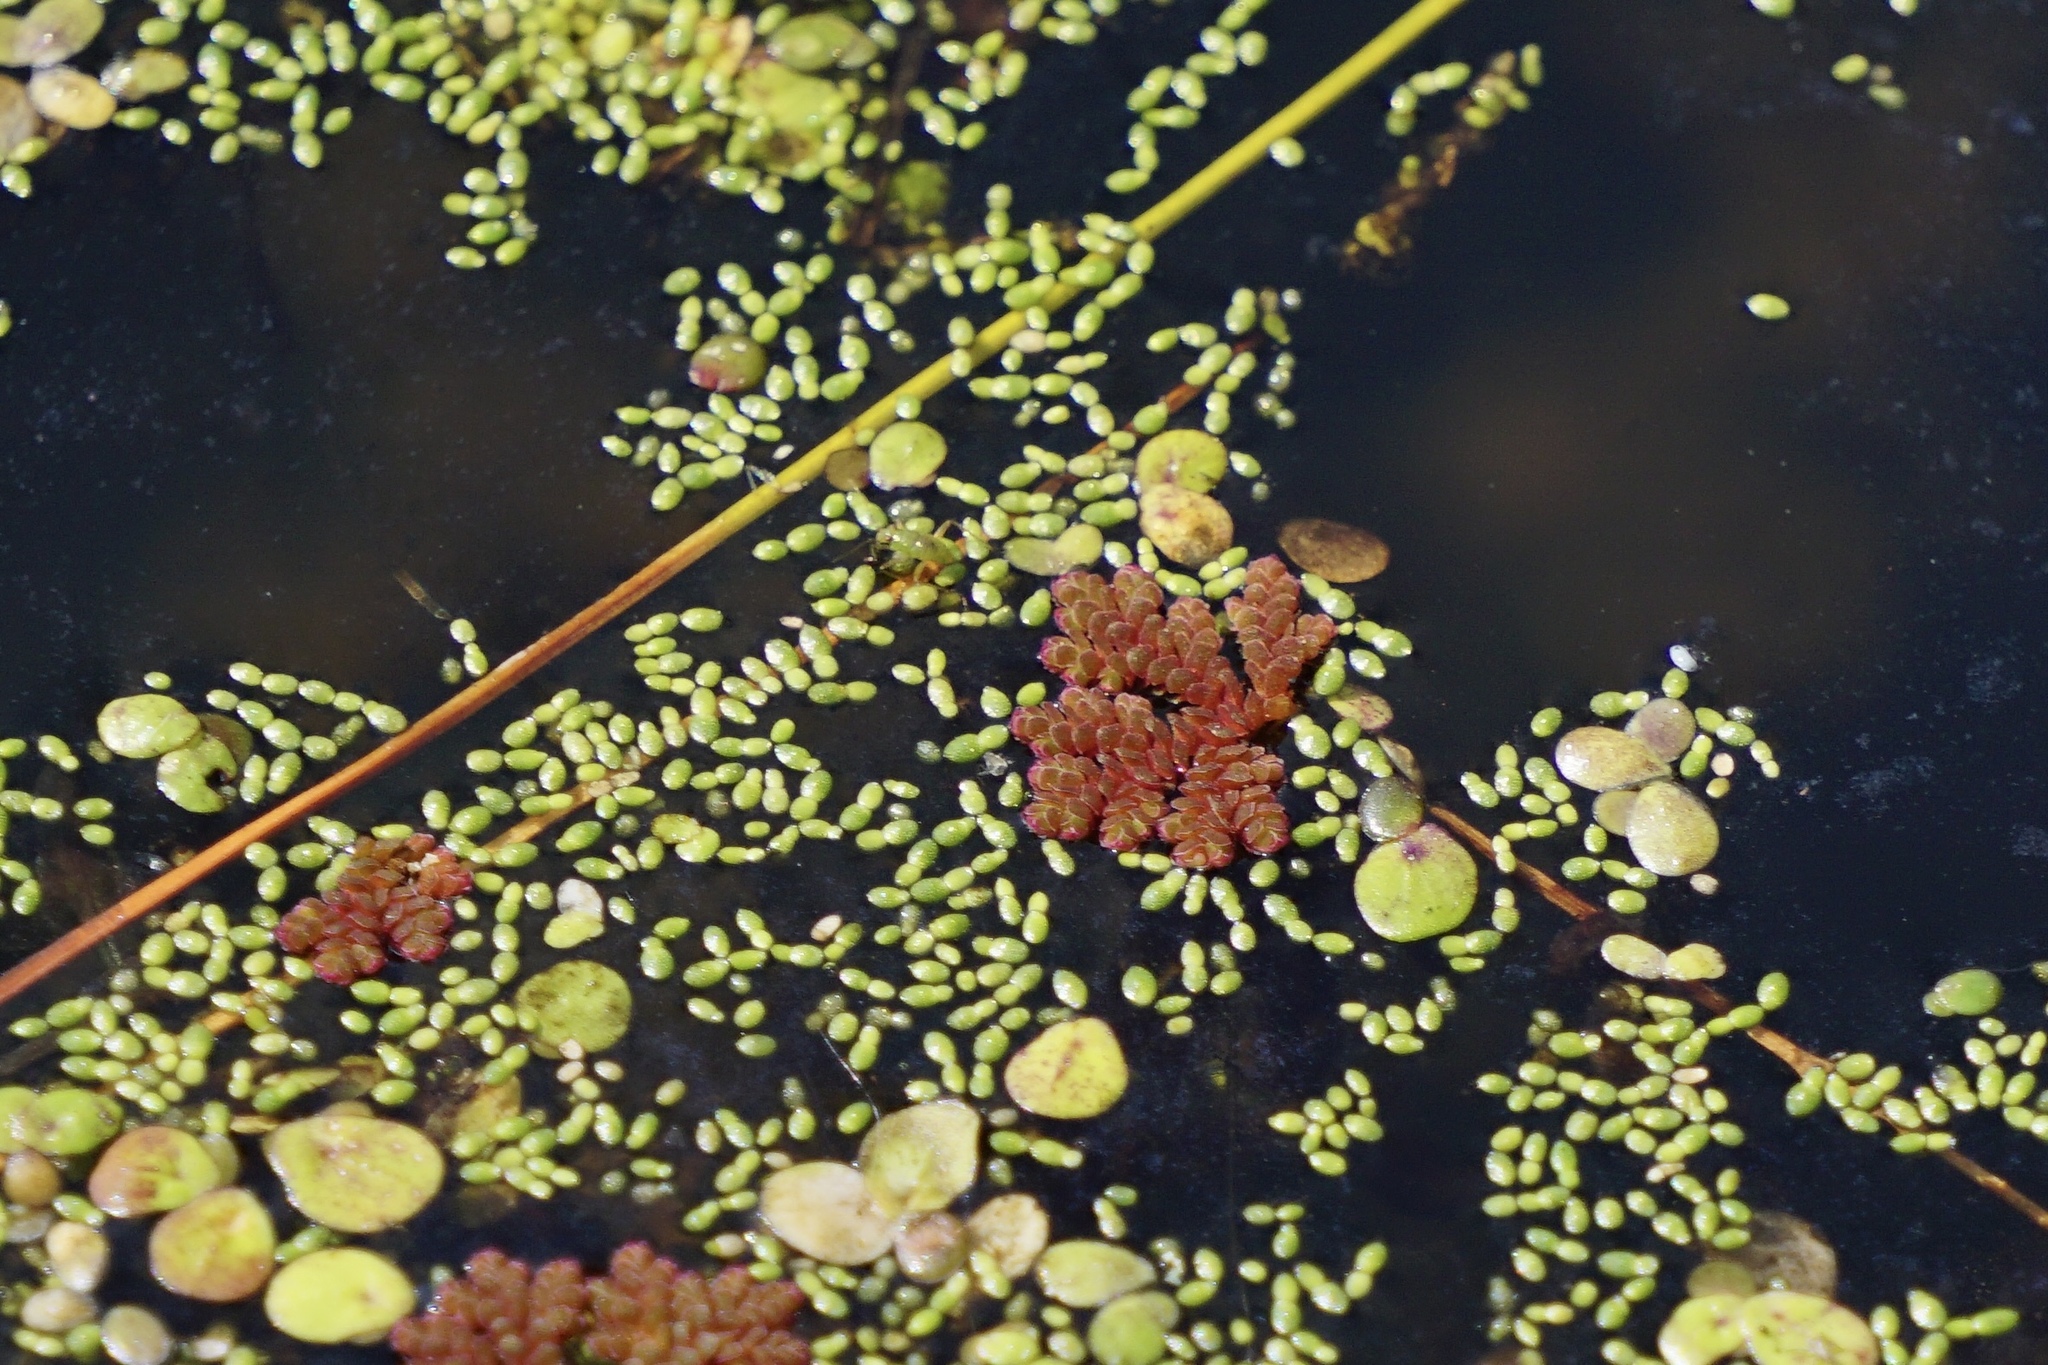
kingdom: Plantae
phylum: Tracheophyta
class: Polypodiopsida
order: Salviniales
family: Salviniaceae
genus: Azolla
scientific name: Azolla caroliniana
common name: Carolina mosquitofern
